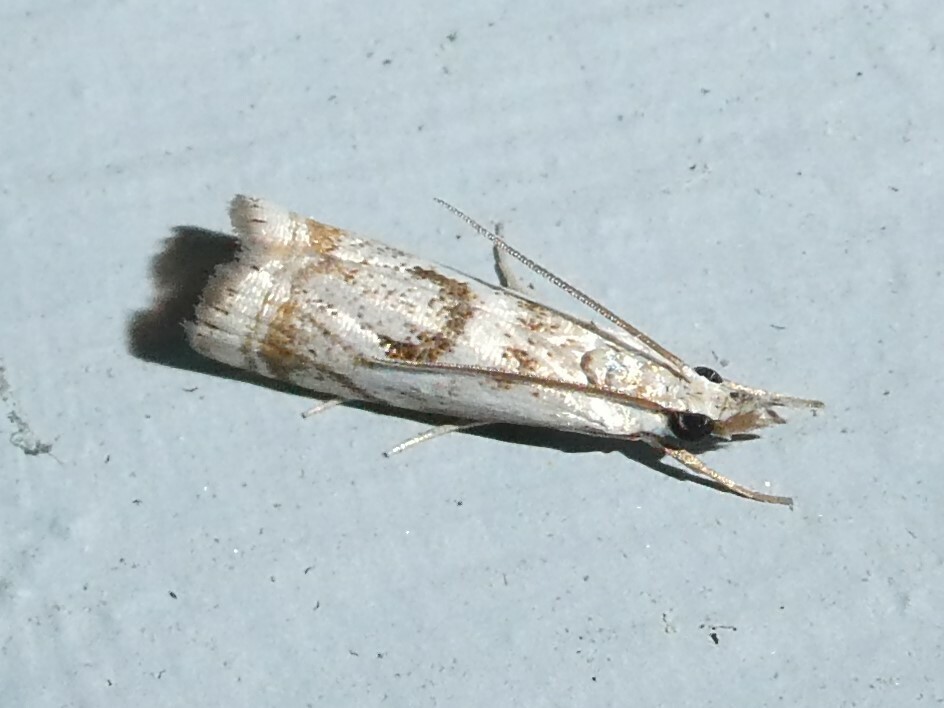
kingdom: Animalia
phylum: Arthropoda
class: Insecta
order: Lepidoptera
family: Crambidae
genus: Microcrambus
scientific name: Microcrambus elegans
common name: Elegant grass-veneer
